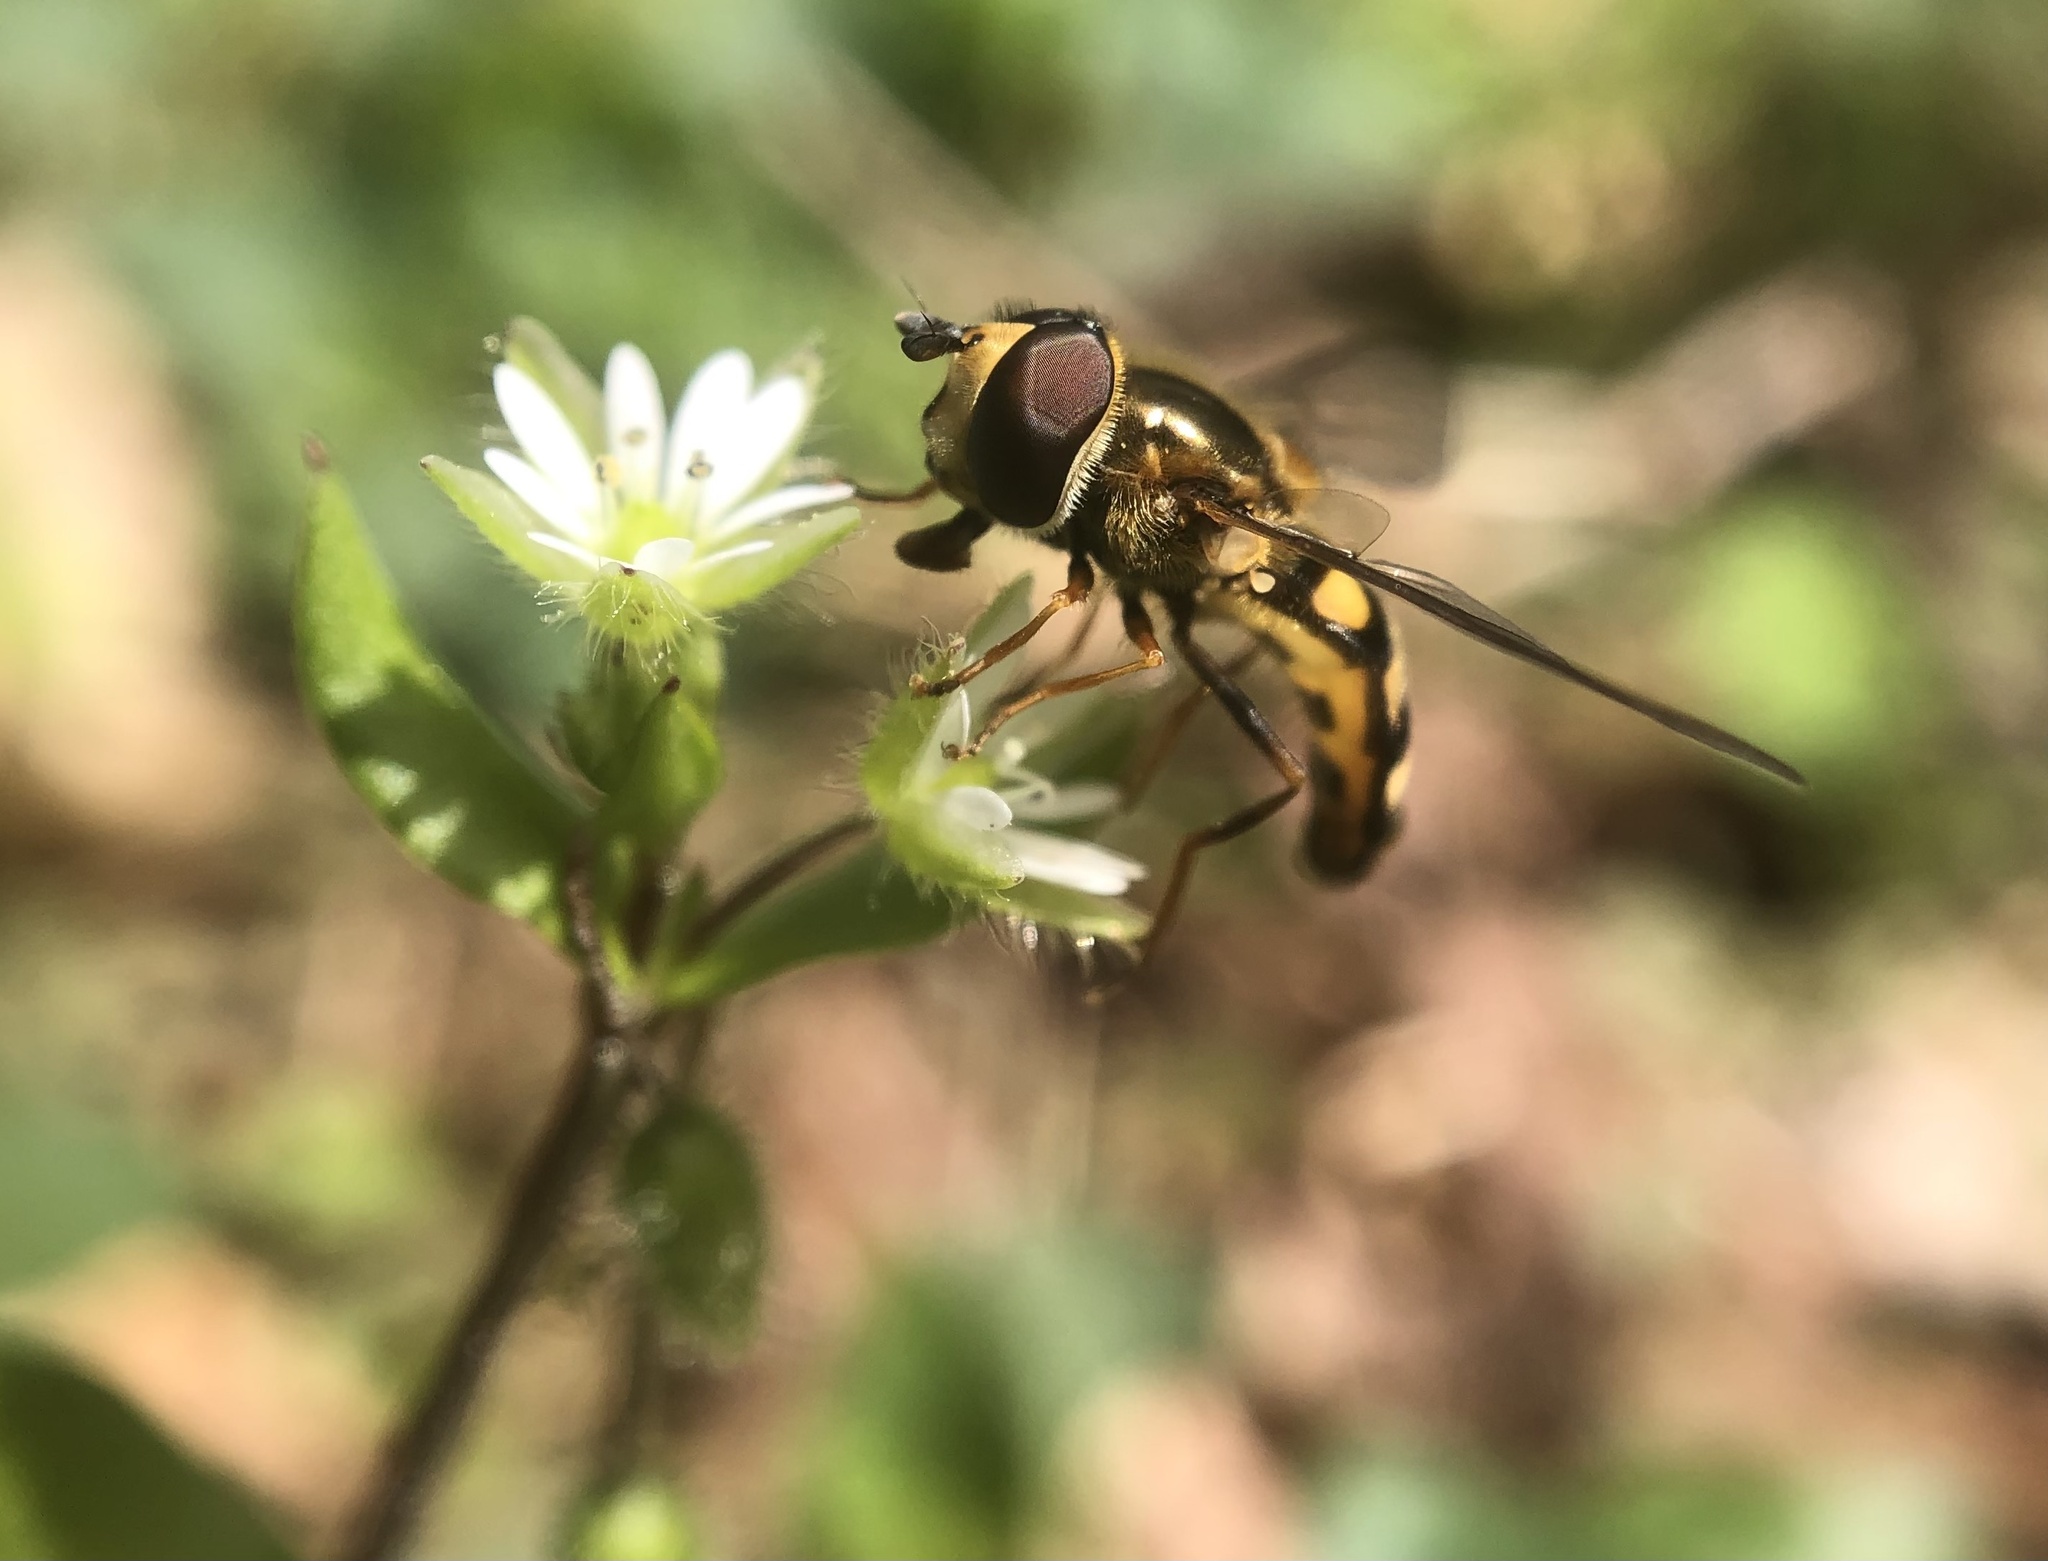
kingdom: Animalia
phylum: Arthropoda
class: Insecta
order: Diptera
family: Syrphidae
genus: Eupeodes
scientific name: Eupeodes
